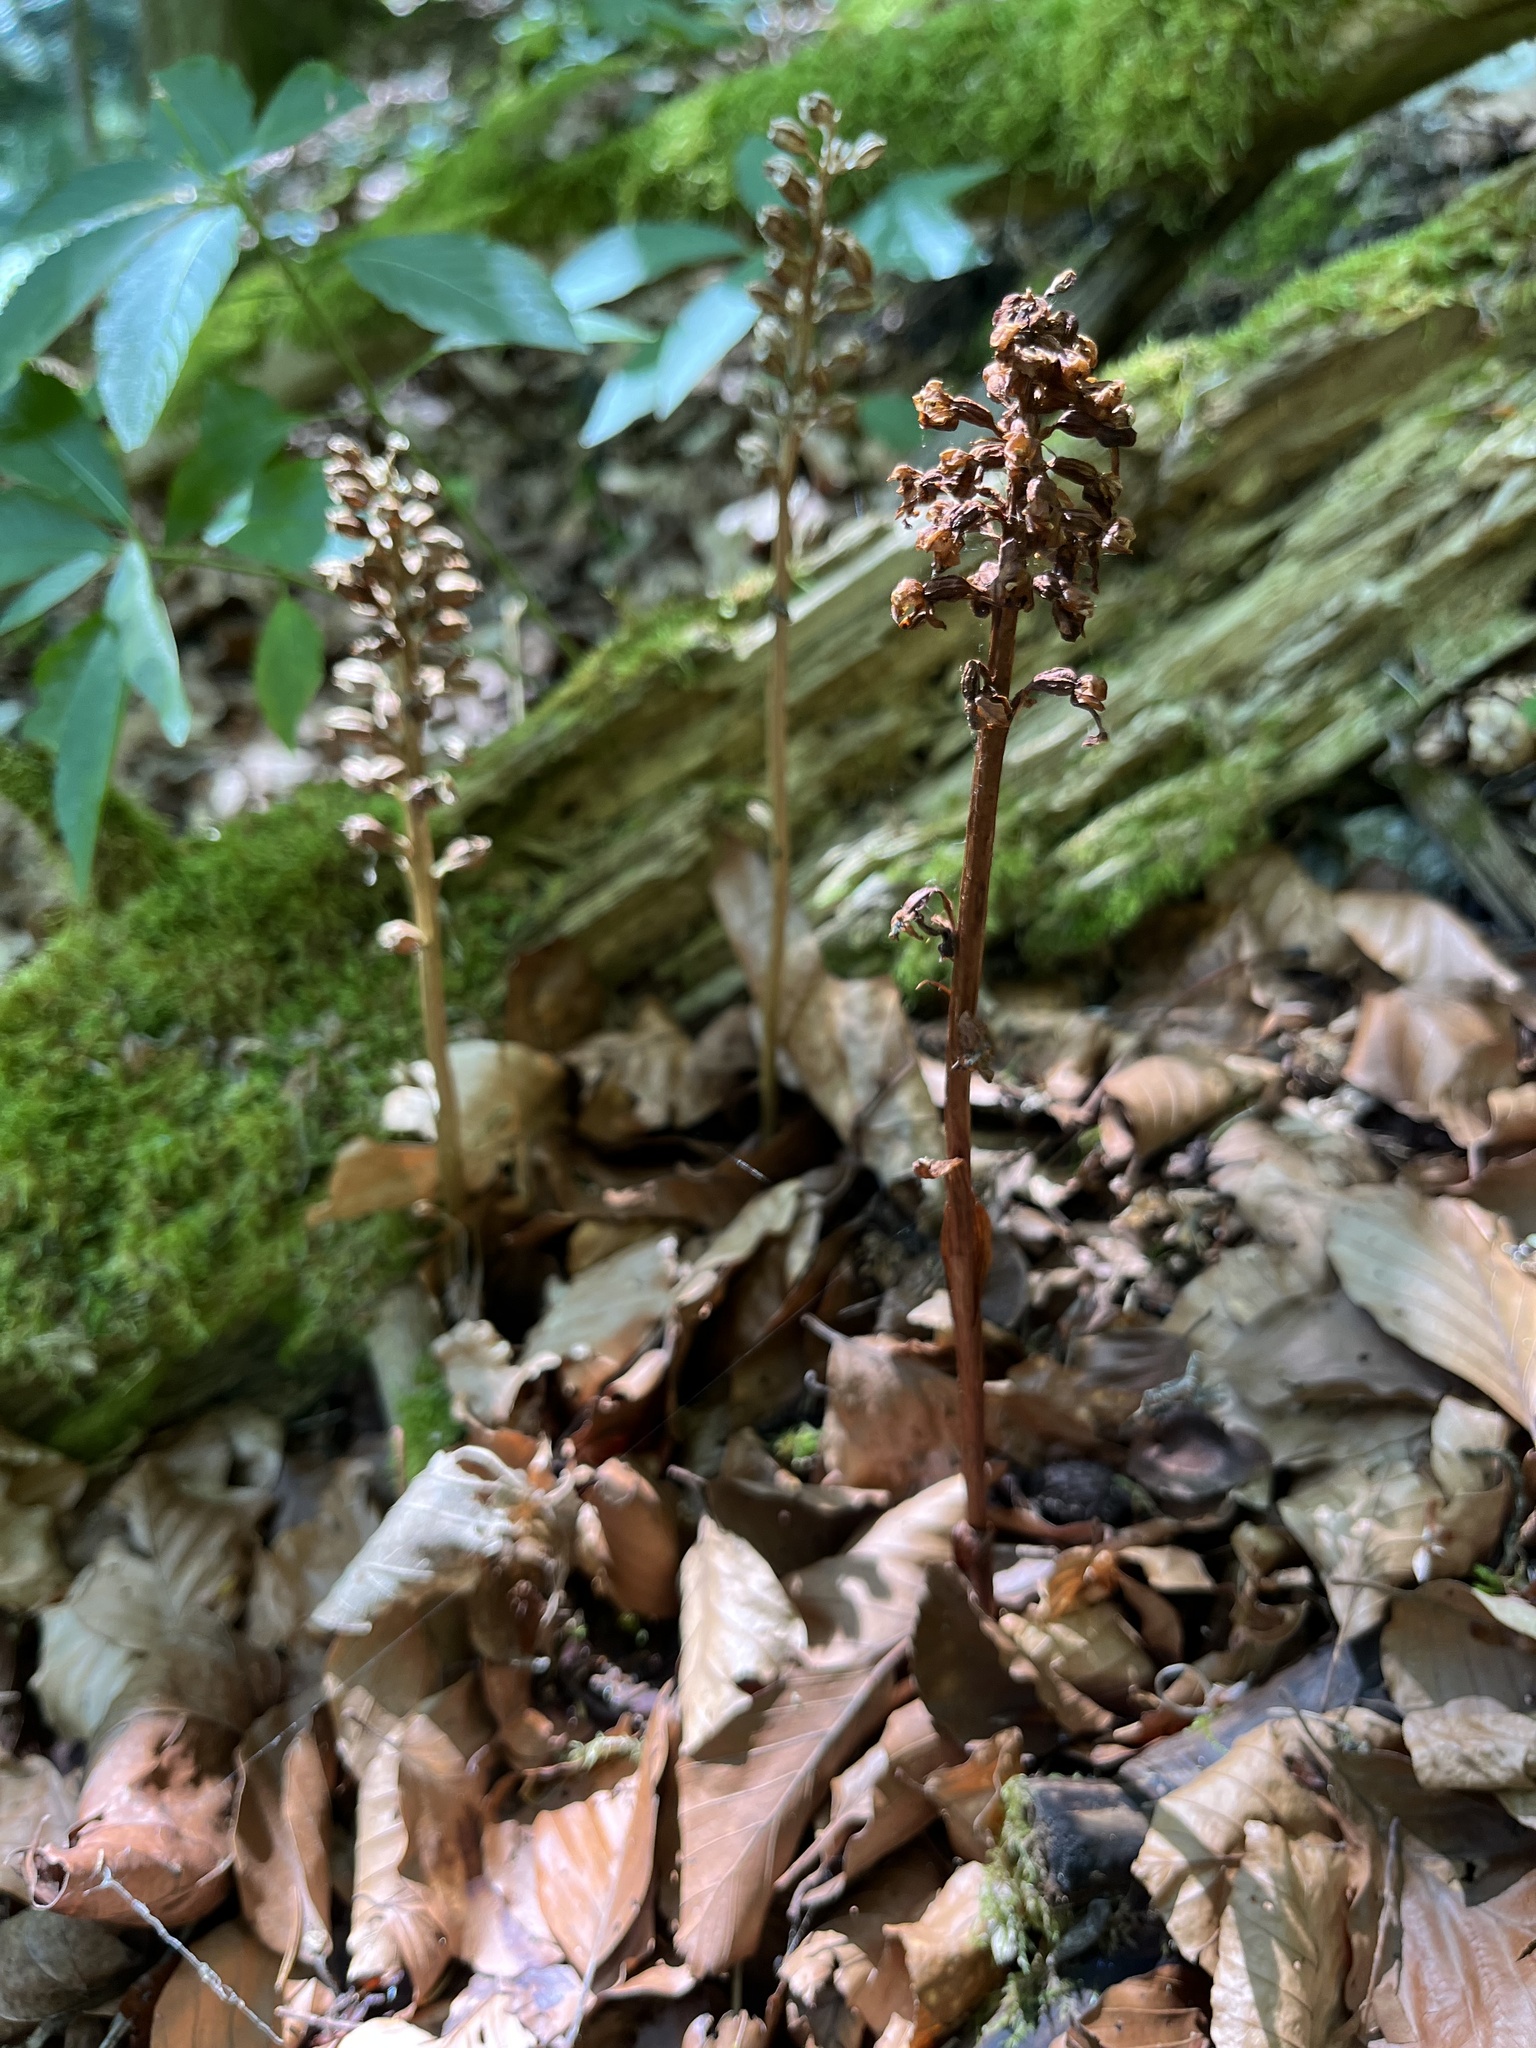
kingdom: Plantae
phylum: Tracheophyta
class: Liliopsida
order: Asparagales
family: Orchidaceae
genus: Neottia
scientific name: Neottia nidus-avis
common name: Bird's-nest orchid
